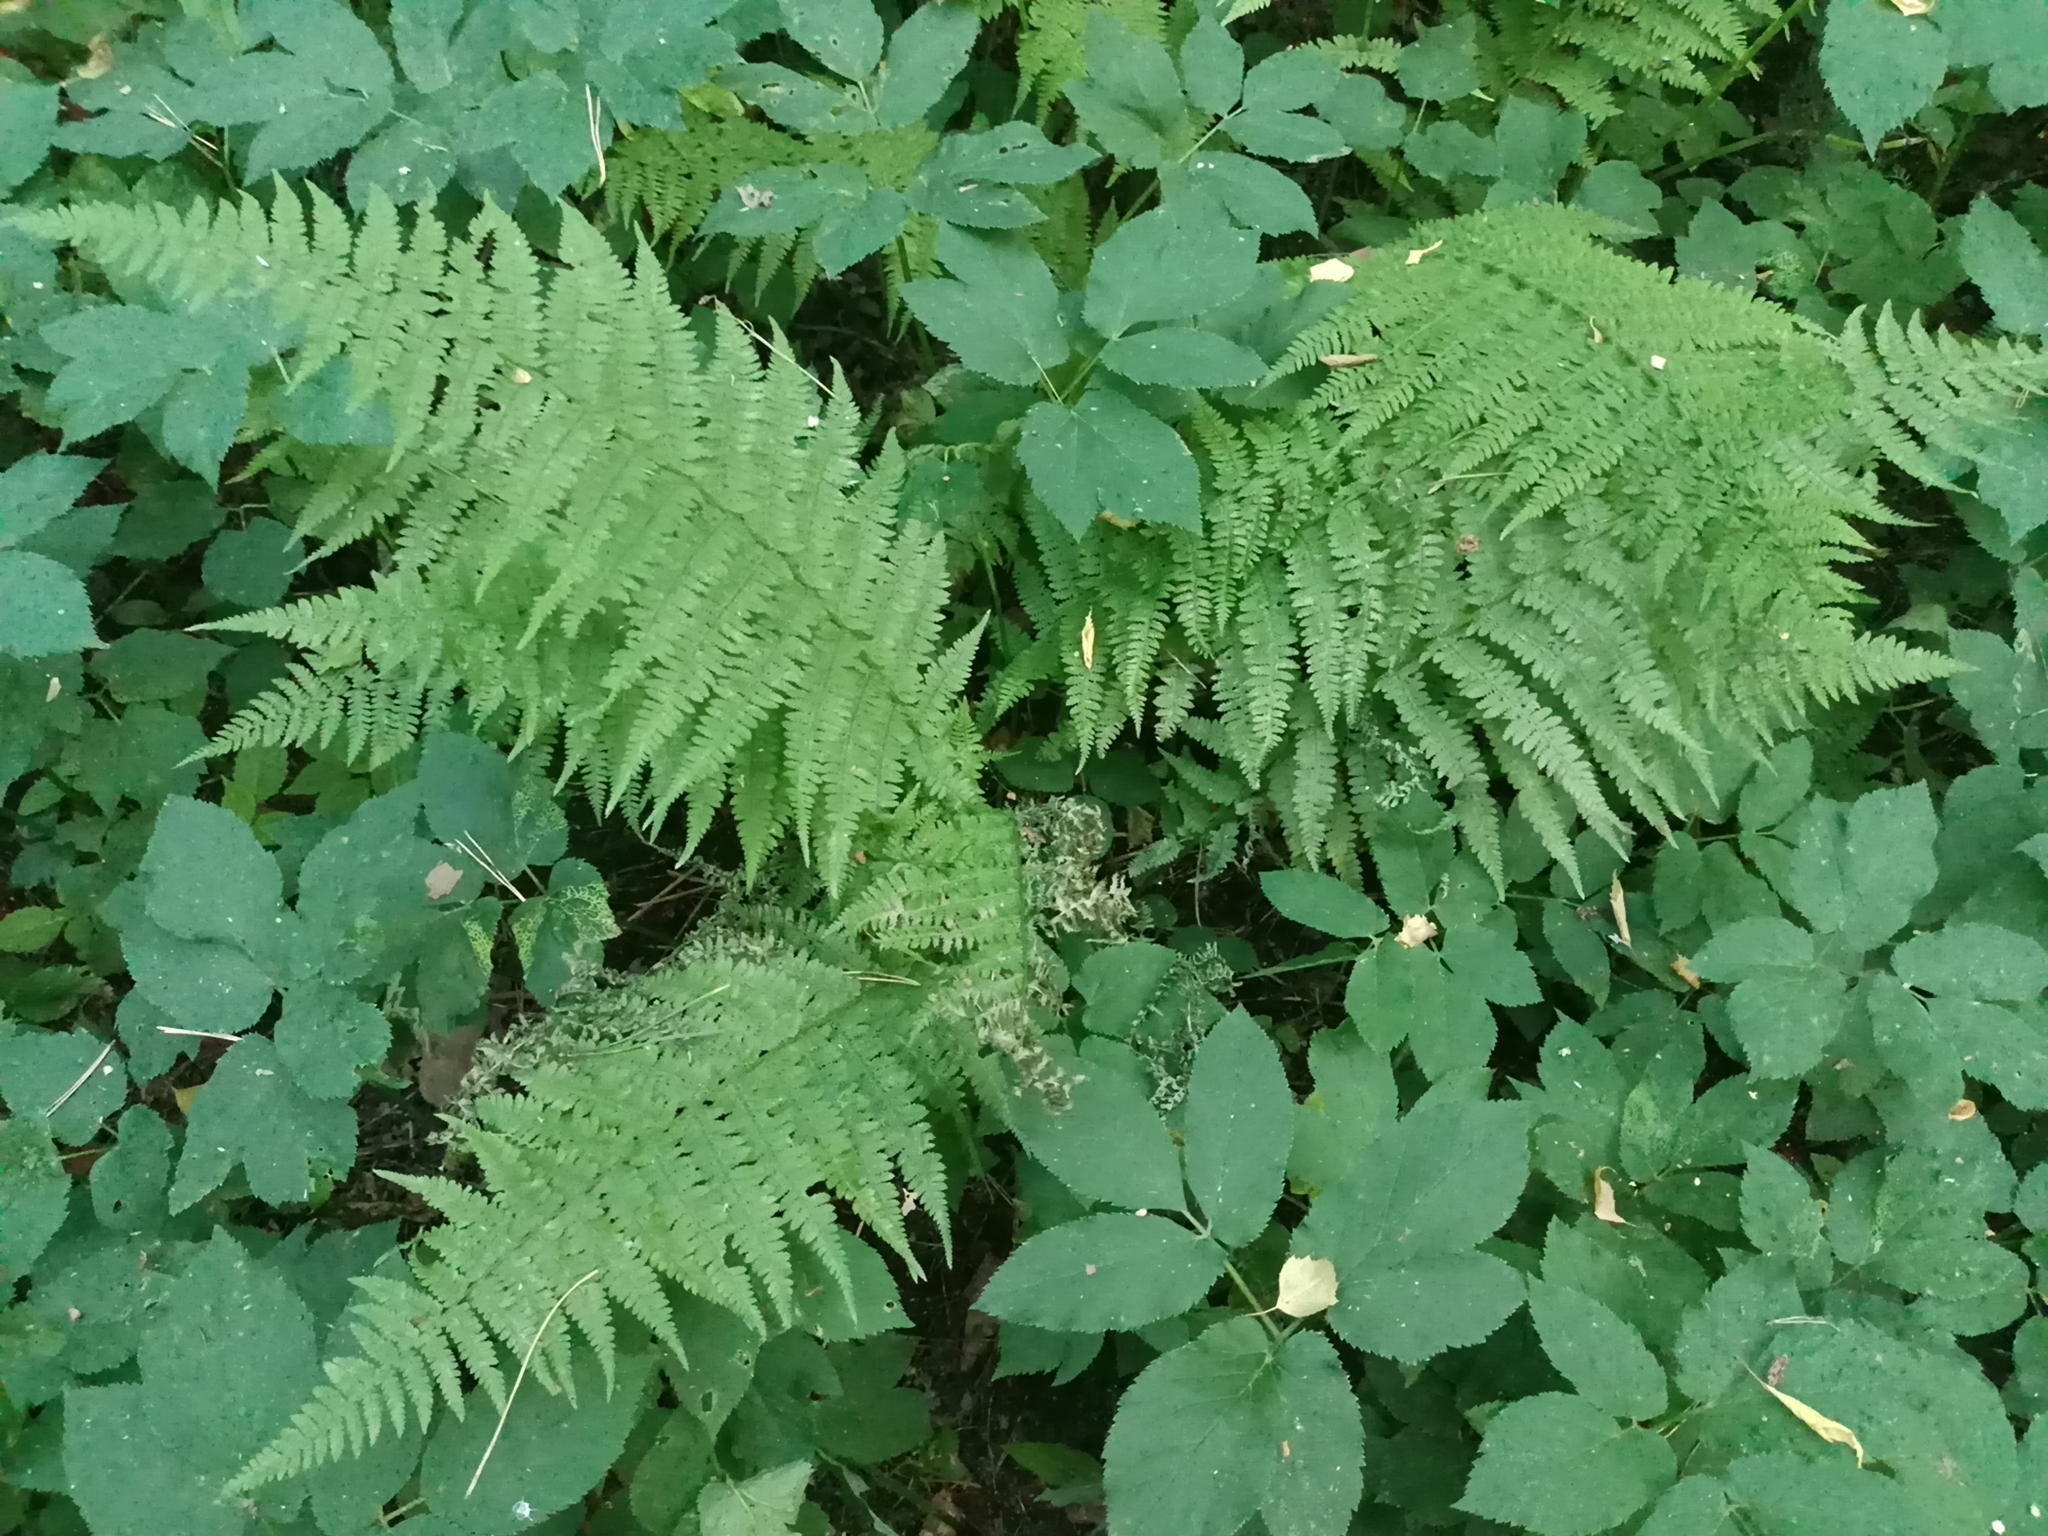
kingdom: Plantae
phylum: Tracheophyta
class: Polypodiopsida
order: Polypodiales
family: Athyriaceae
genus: Athyrium
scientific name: Athyrium filix-femina
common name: Lady fern
